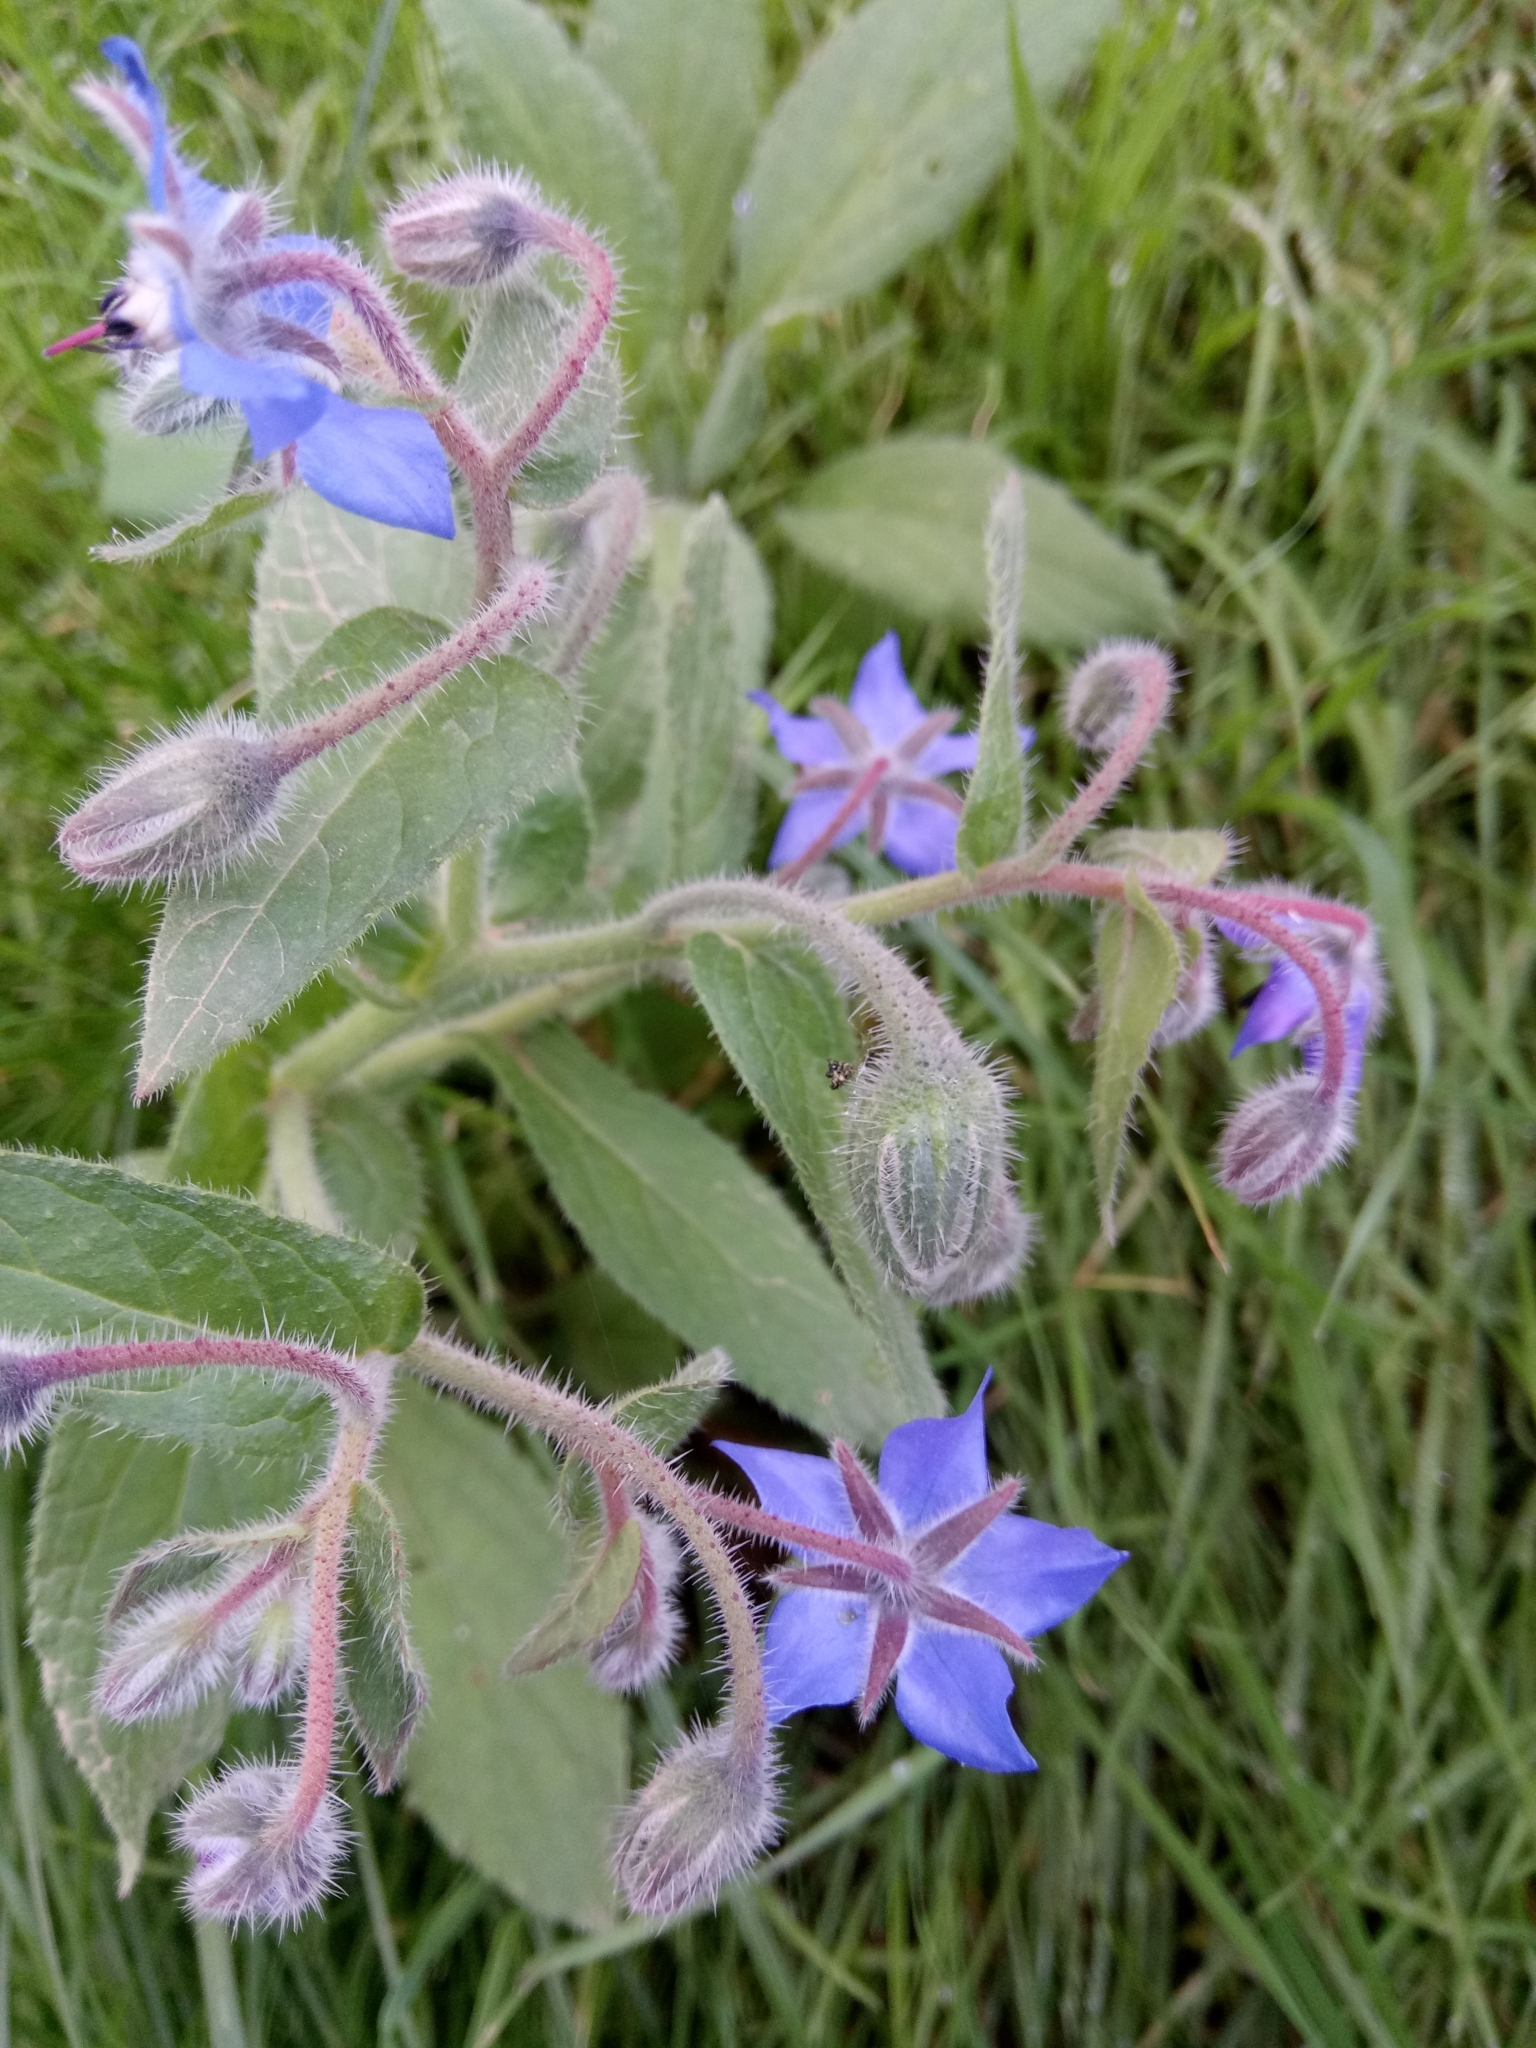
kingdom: Plantae
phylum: Tracheophyta
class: Magnoliopsida
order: Boraginales
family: Boraginaceae
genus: Borago
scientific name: Borago officinalis
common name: Borage
